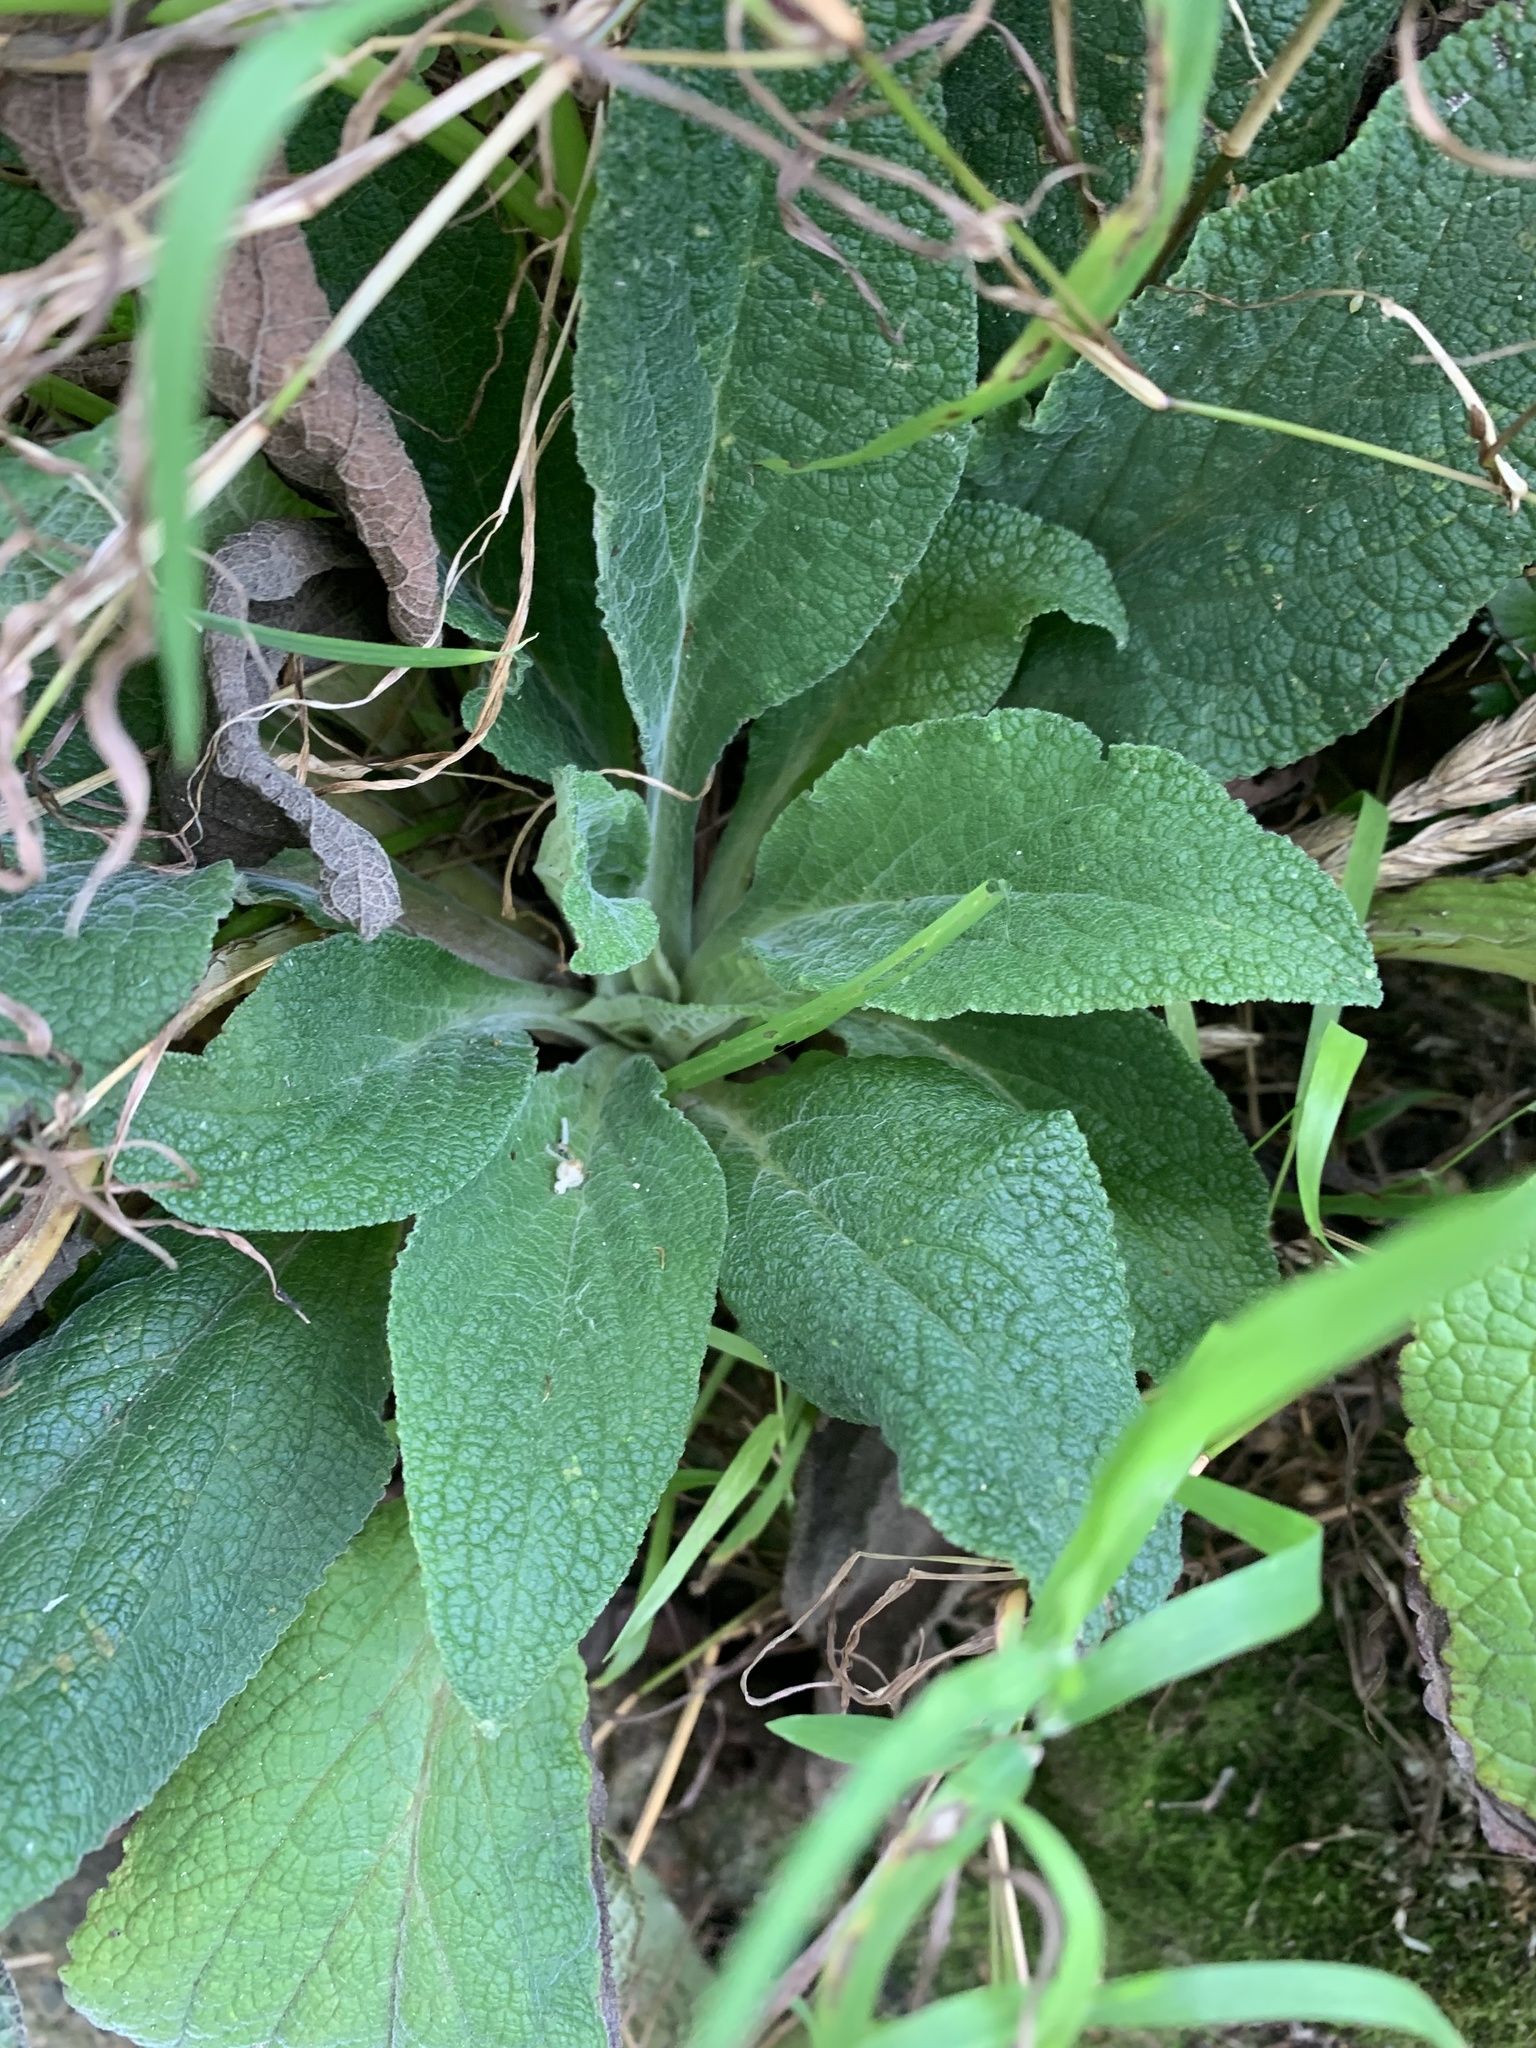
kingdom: Plantae
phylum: Tracheophyta
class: Magnoliopsida
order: Lamiales
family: Plantaginaceae
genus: Digitalis
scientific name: Digitalis purpurea
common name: Foxglove
